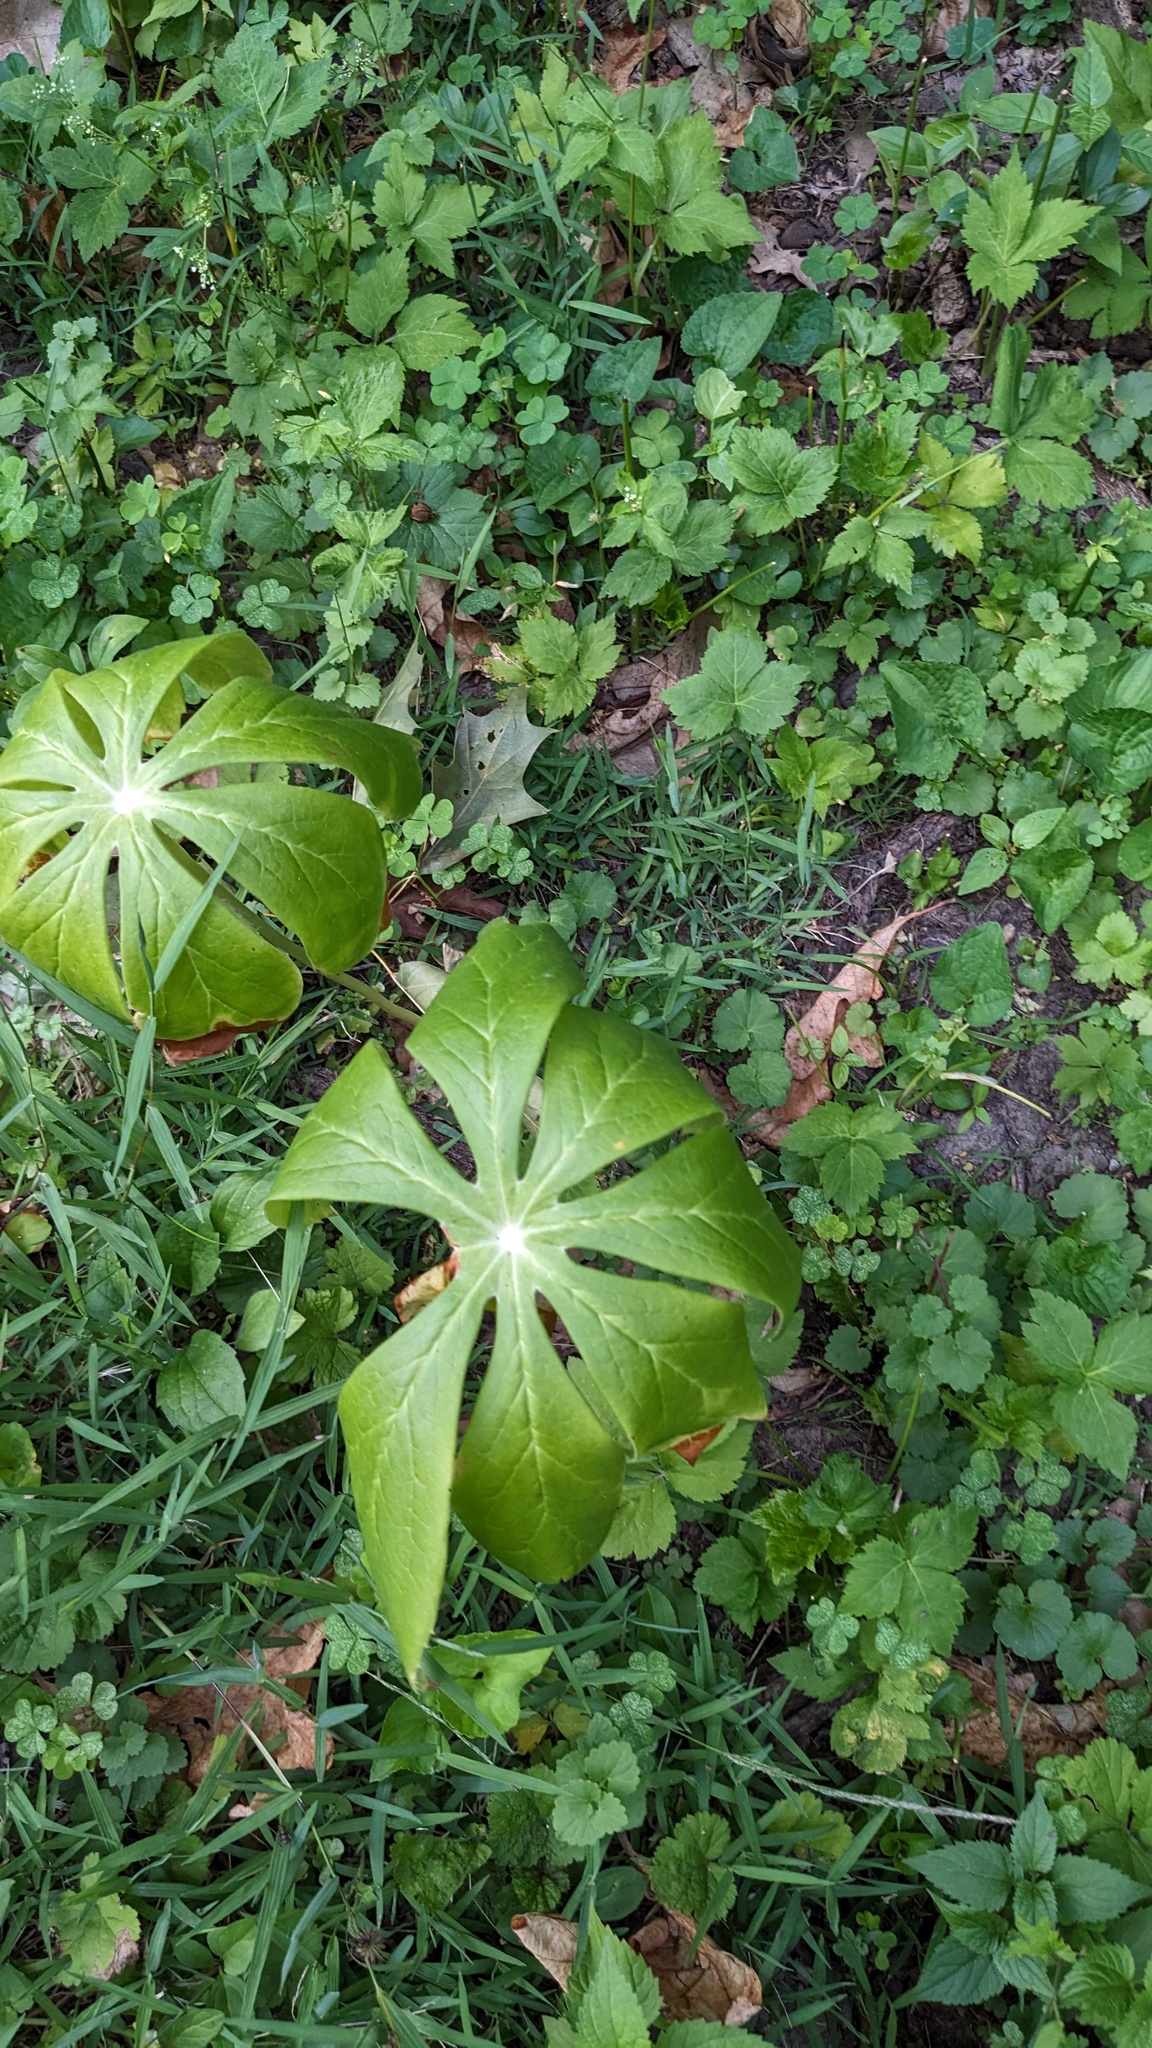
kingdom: Plantae
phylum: Tracheophyta
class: Magnoliopsida
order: Ranunculales
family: Berberidaceae
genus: Podophyllum
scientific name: Podophyllum peltatum
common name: Wild mandrake
